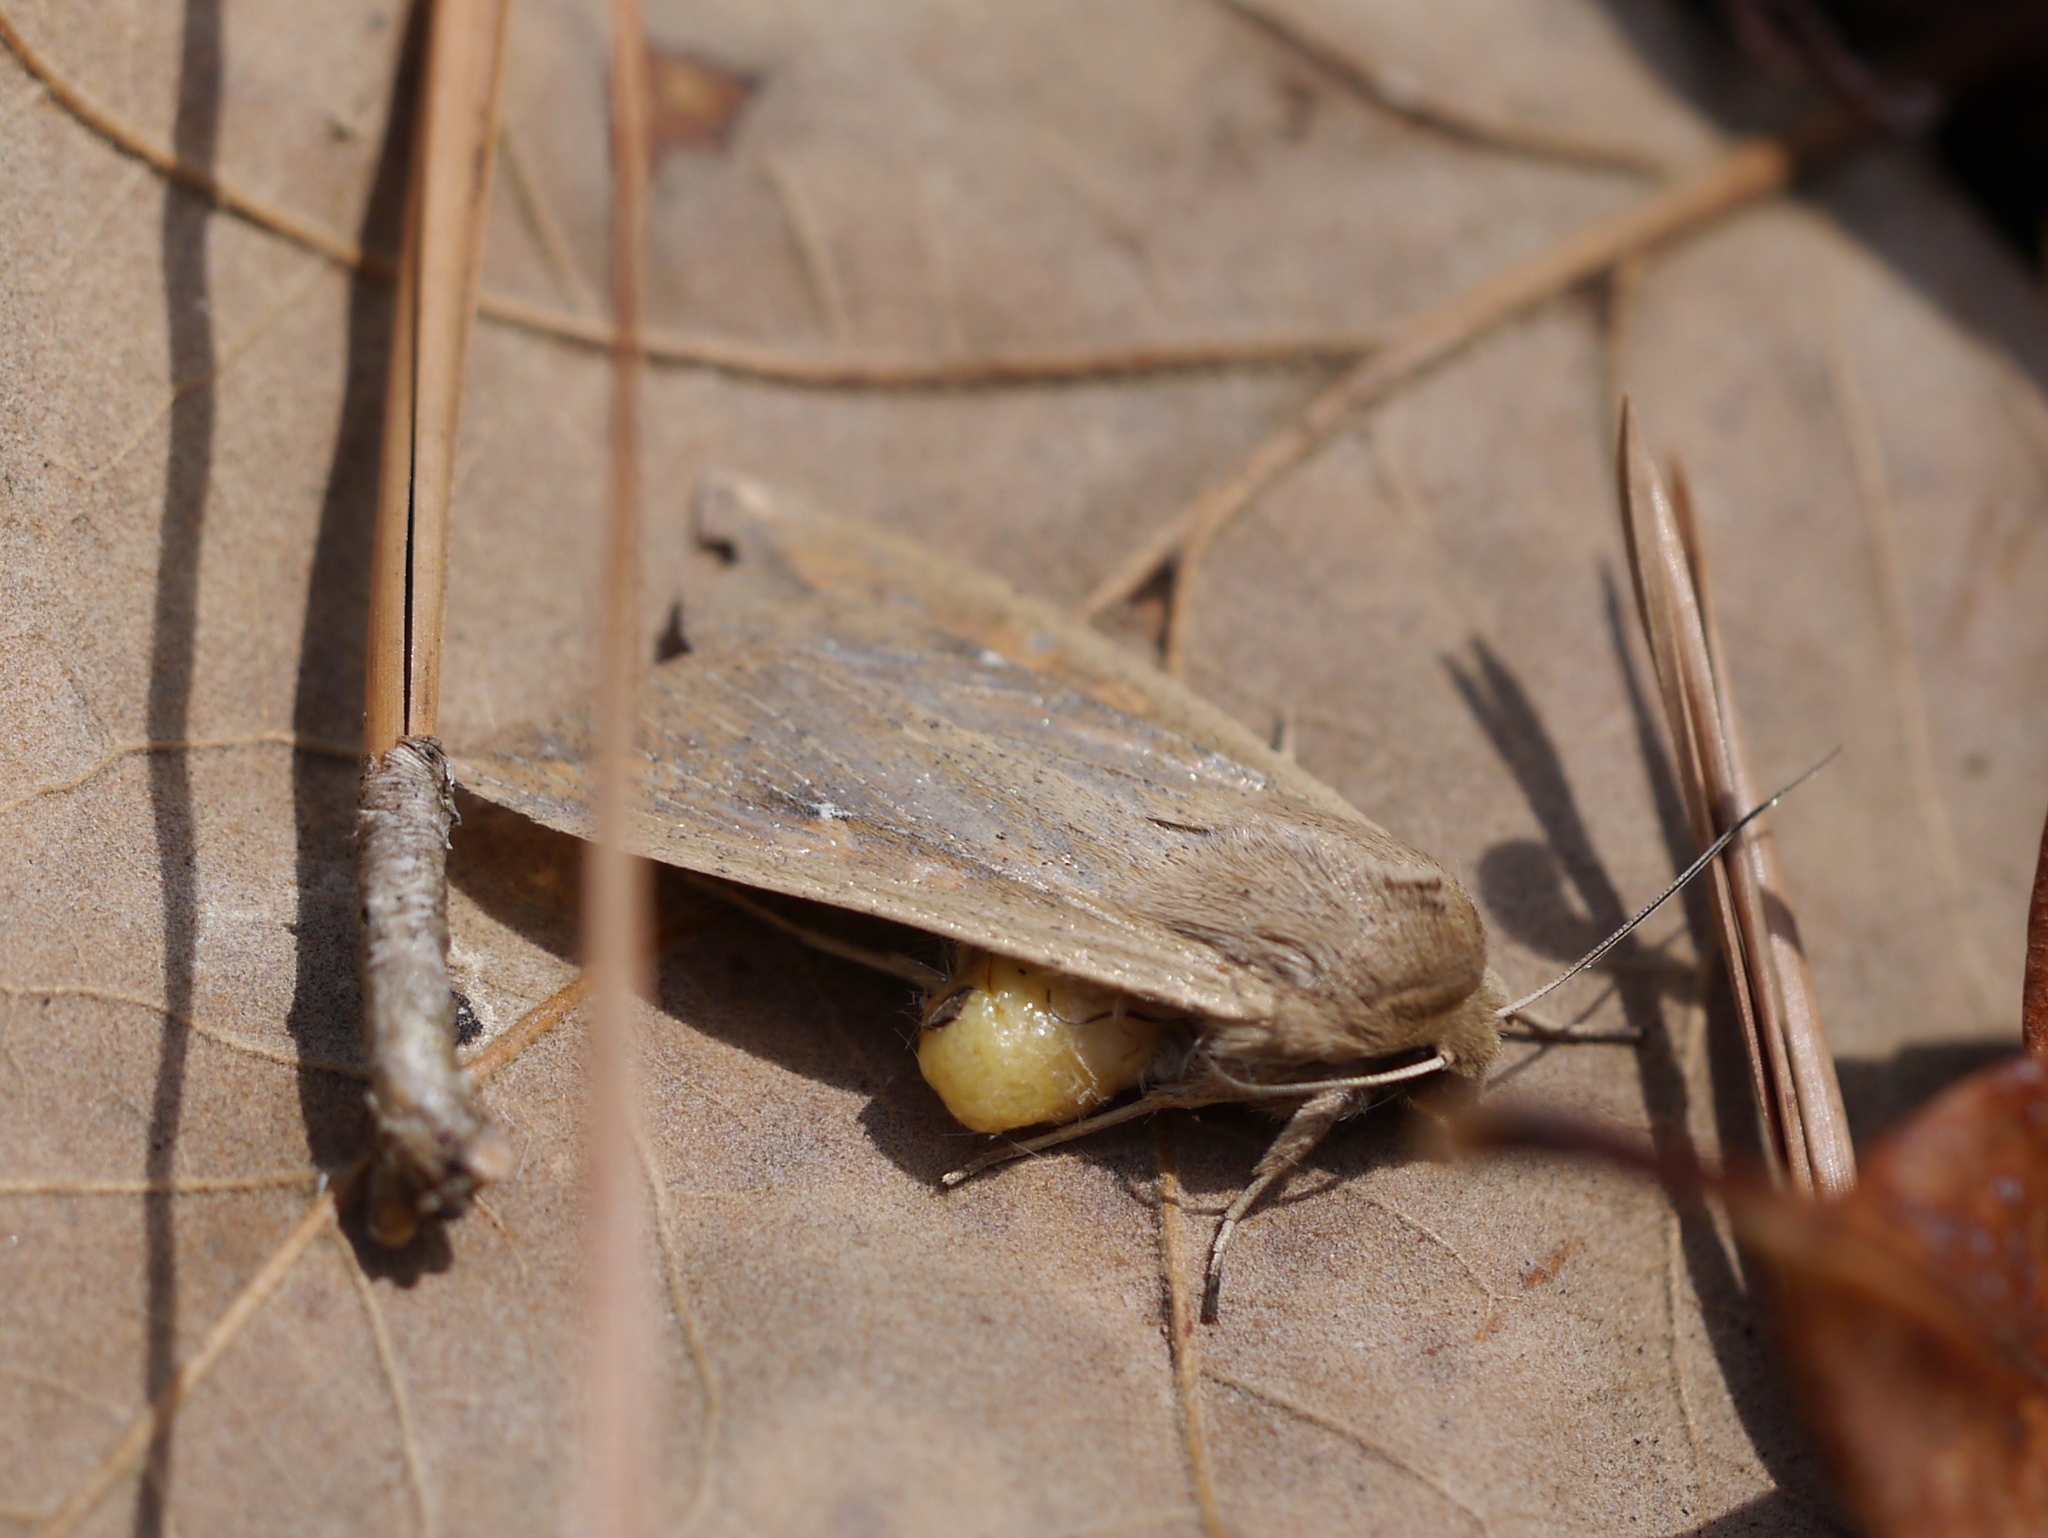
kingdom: Animalia
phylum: Arthropoda
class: Insecta
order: Lepidoptera
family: Noctuidae
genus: Mythimna
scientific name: Mythimna unipuncta
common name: White-speck
